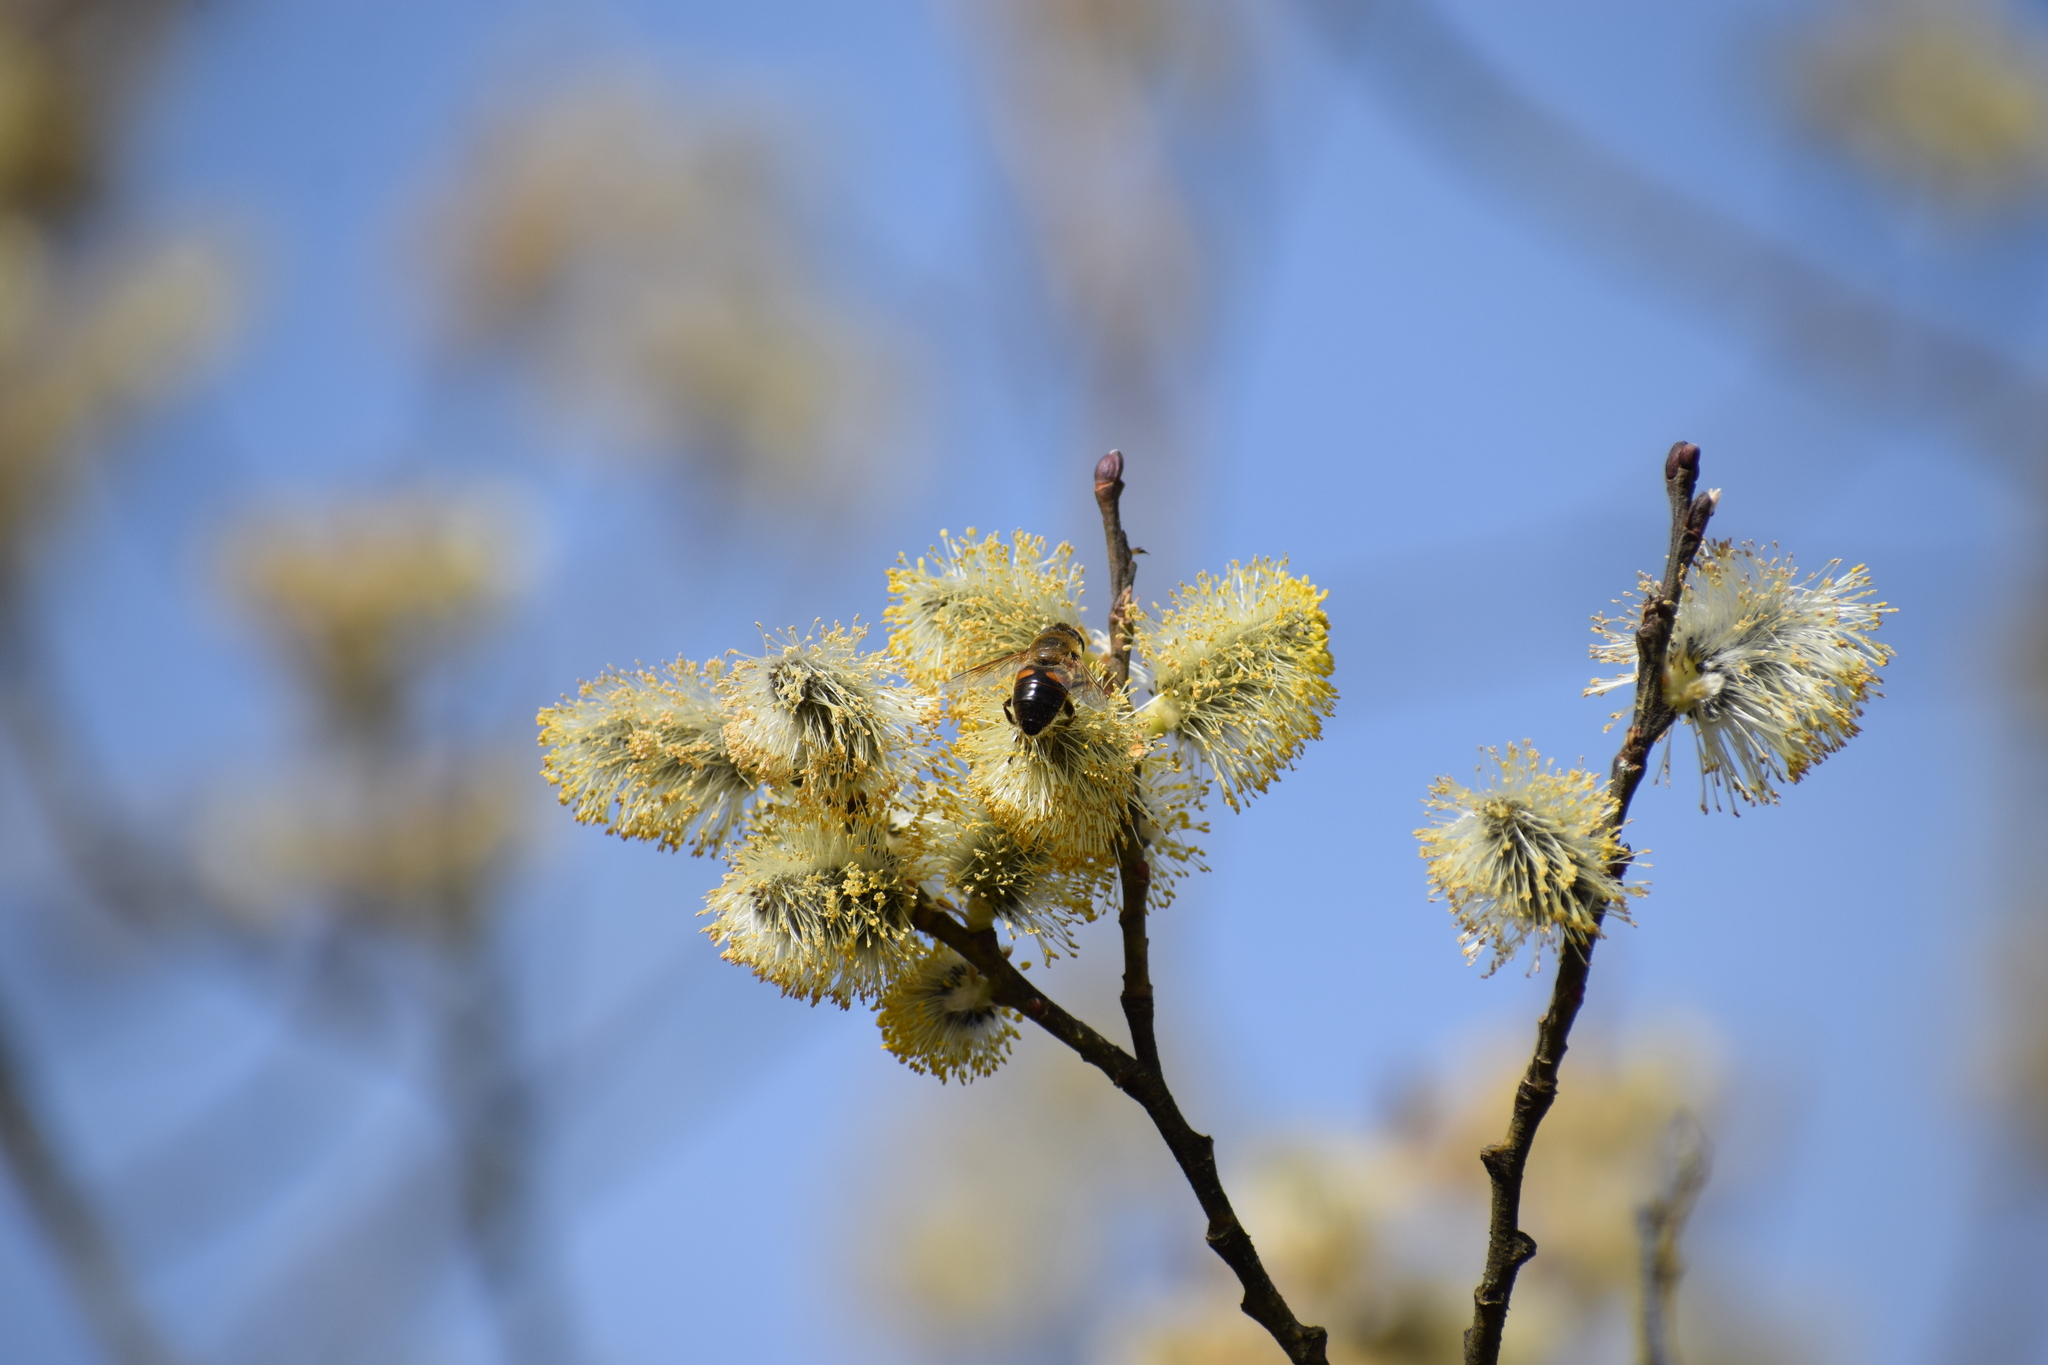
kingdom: Plantae
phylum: Tracheophyta
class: Magnoliopsida
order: Malpighiales
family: Salicaceae
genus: Salix
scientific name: Salix caprea
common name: Goat willow
